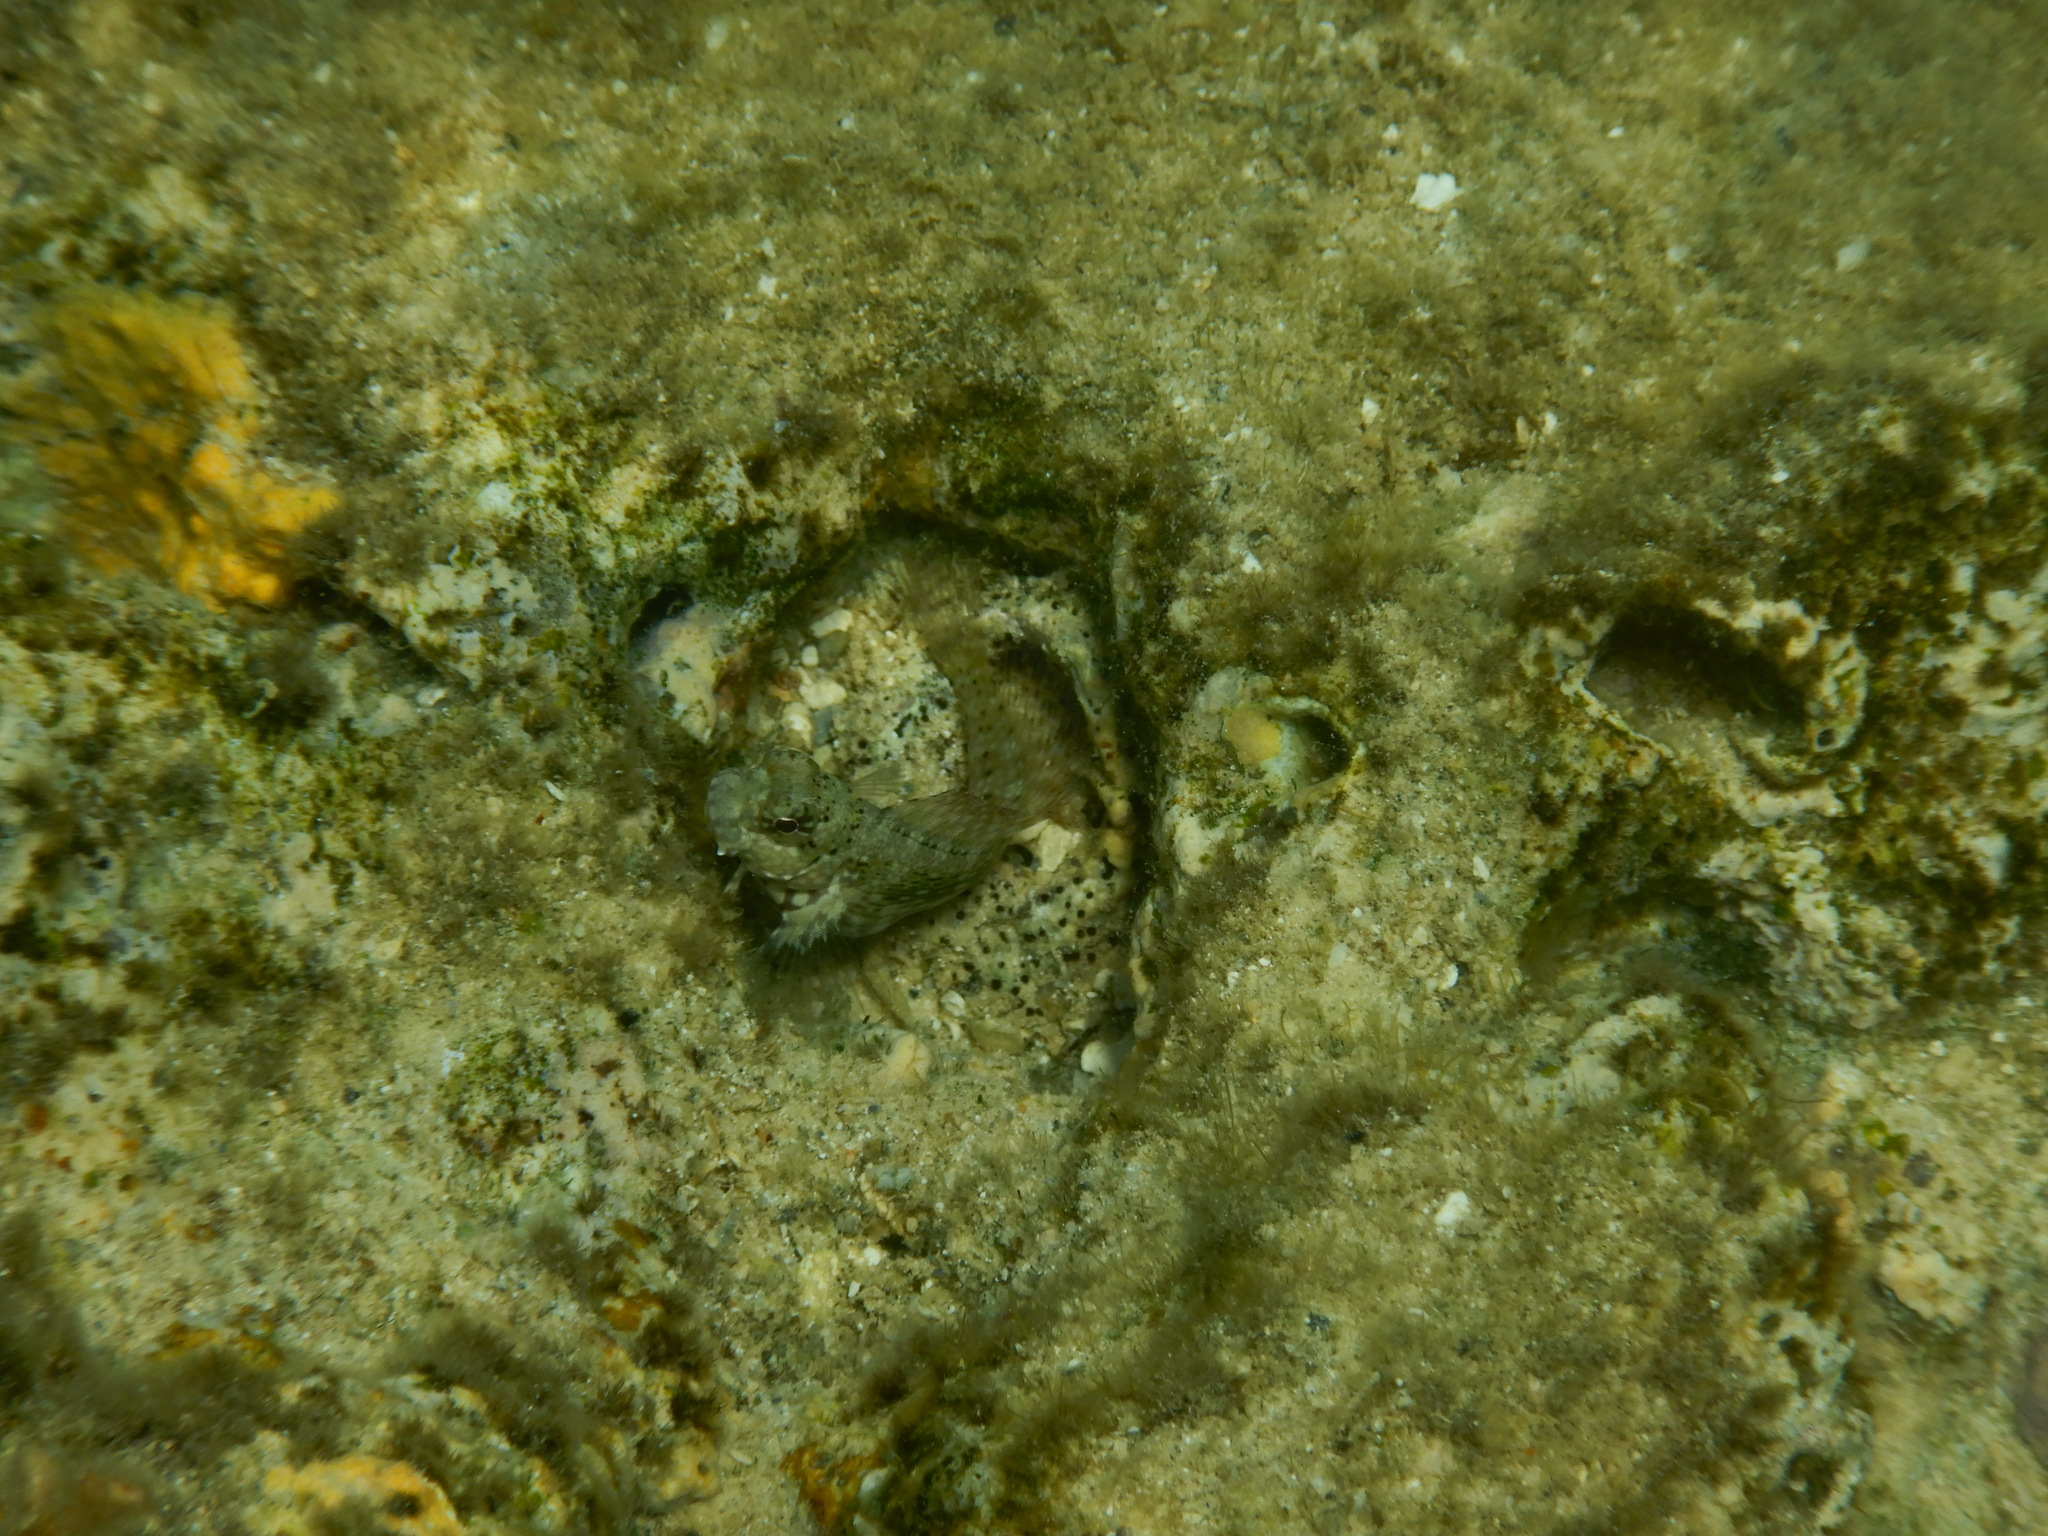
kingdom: Animalia
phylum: Chordata
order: Perciformes
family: Blenniidae
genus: Salarias
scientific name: Salarias fasciatus
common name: Jewelled blenny
